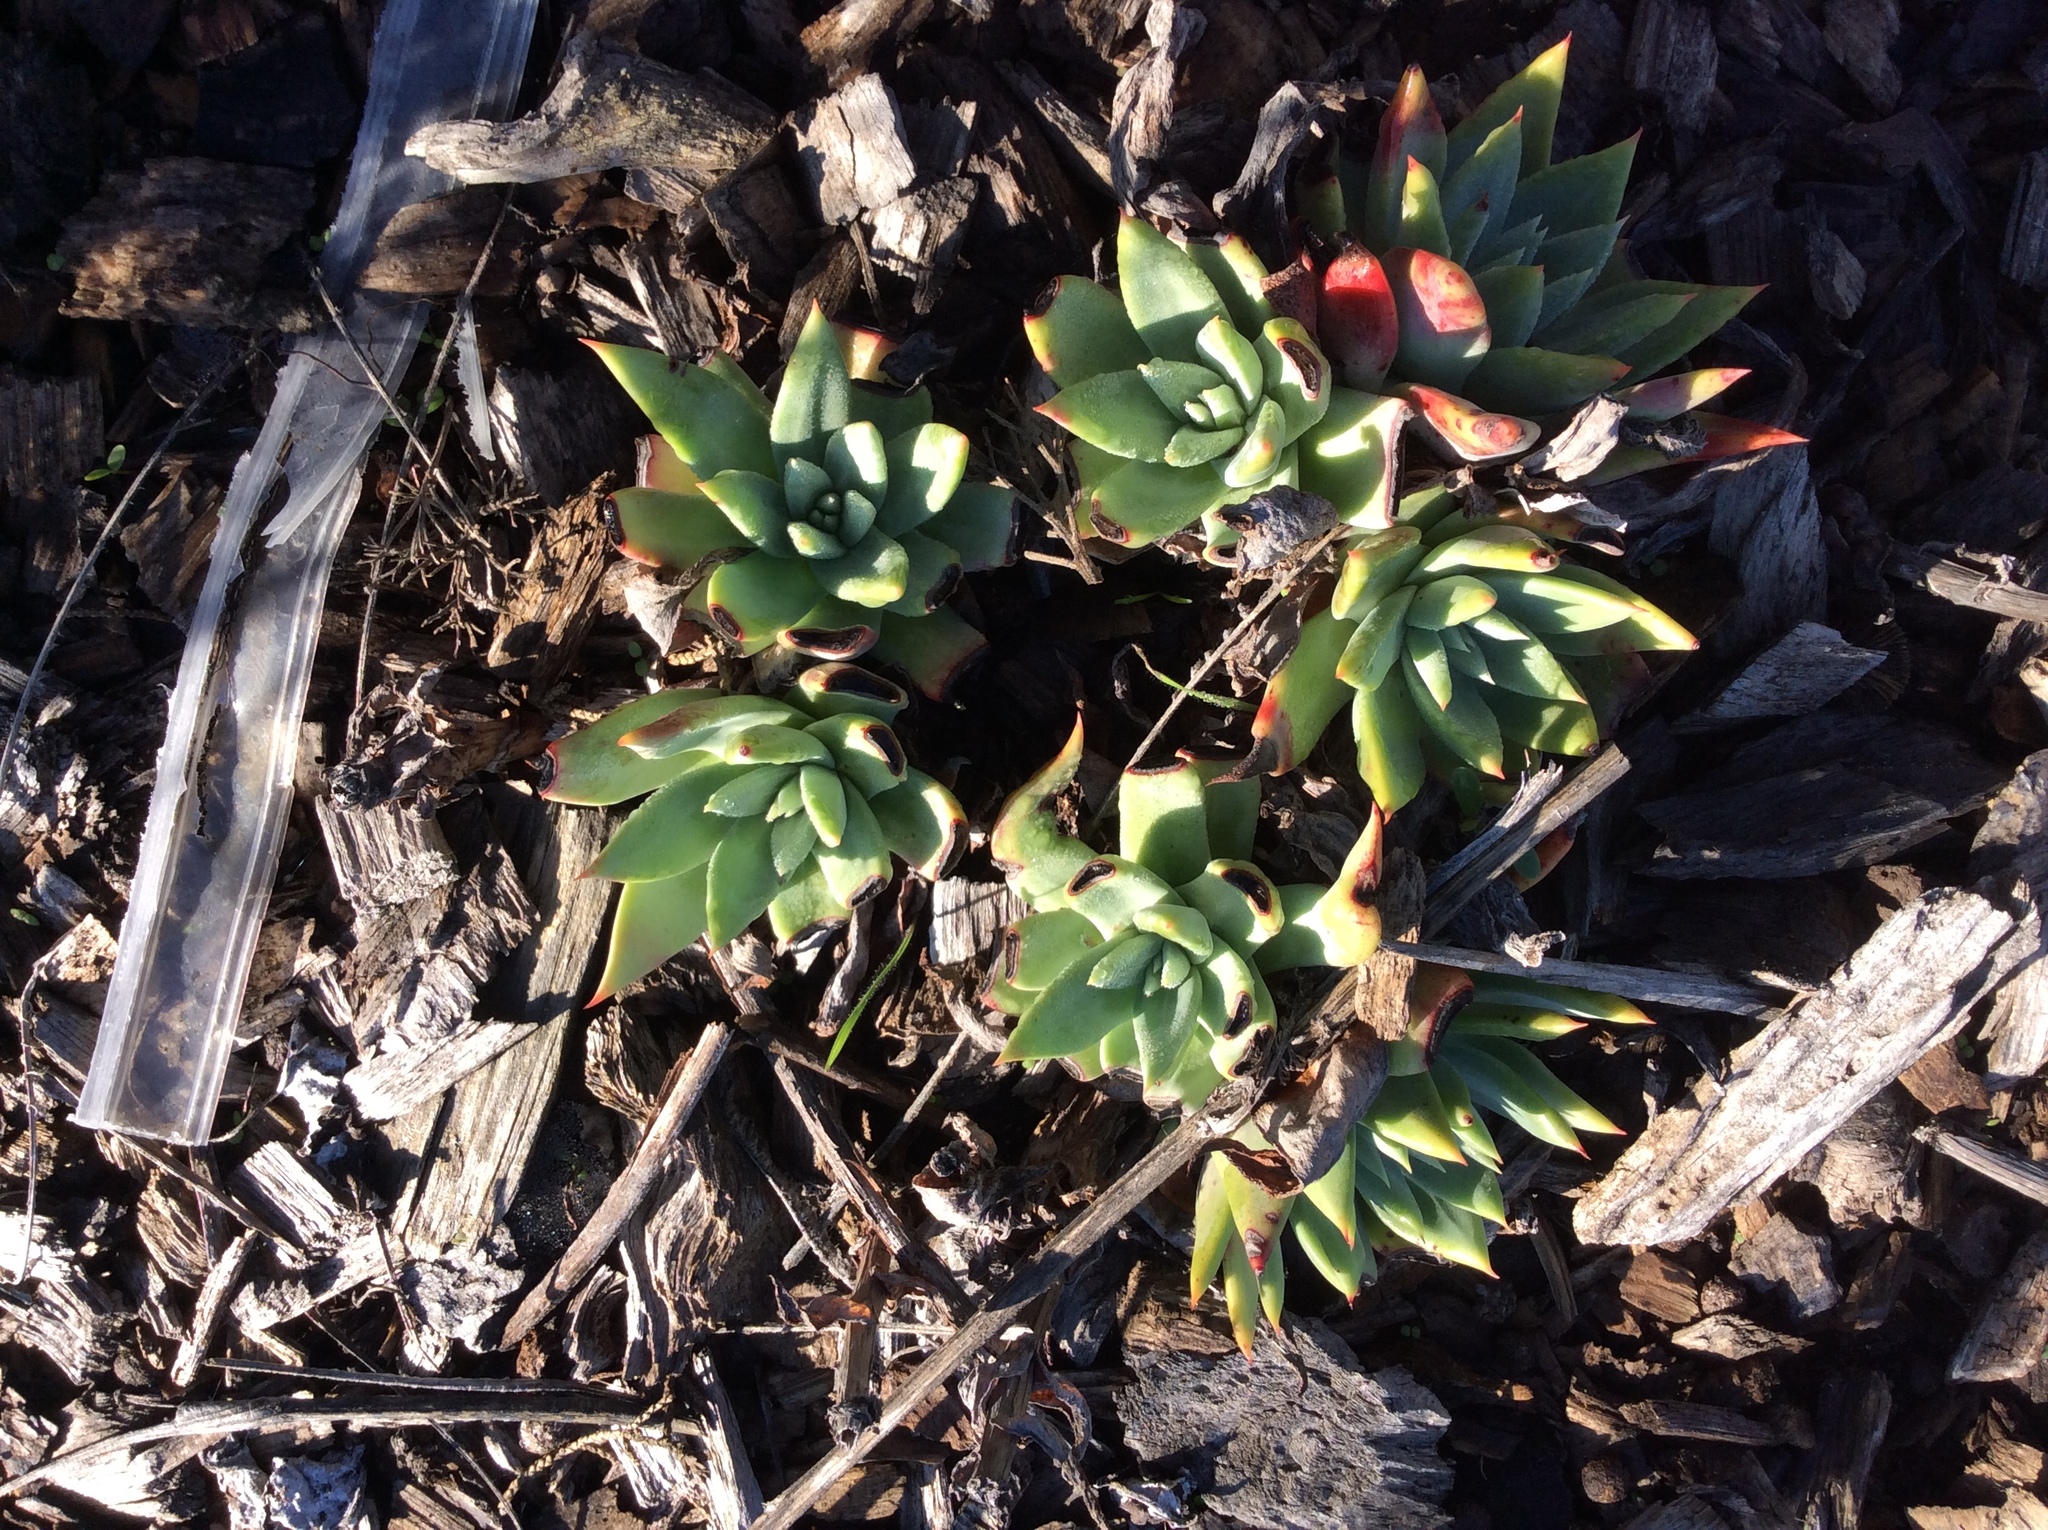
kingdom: Plantae
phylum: Tracheophyta
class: Magnoliopsida
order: Saxifragales
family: Crassulaceae
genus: Dudleya
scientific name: Dudleya farinosa
